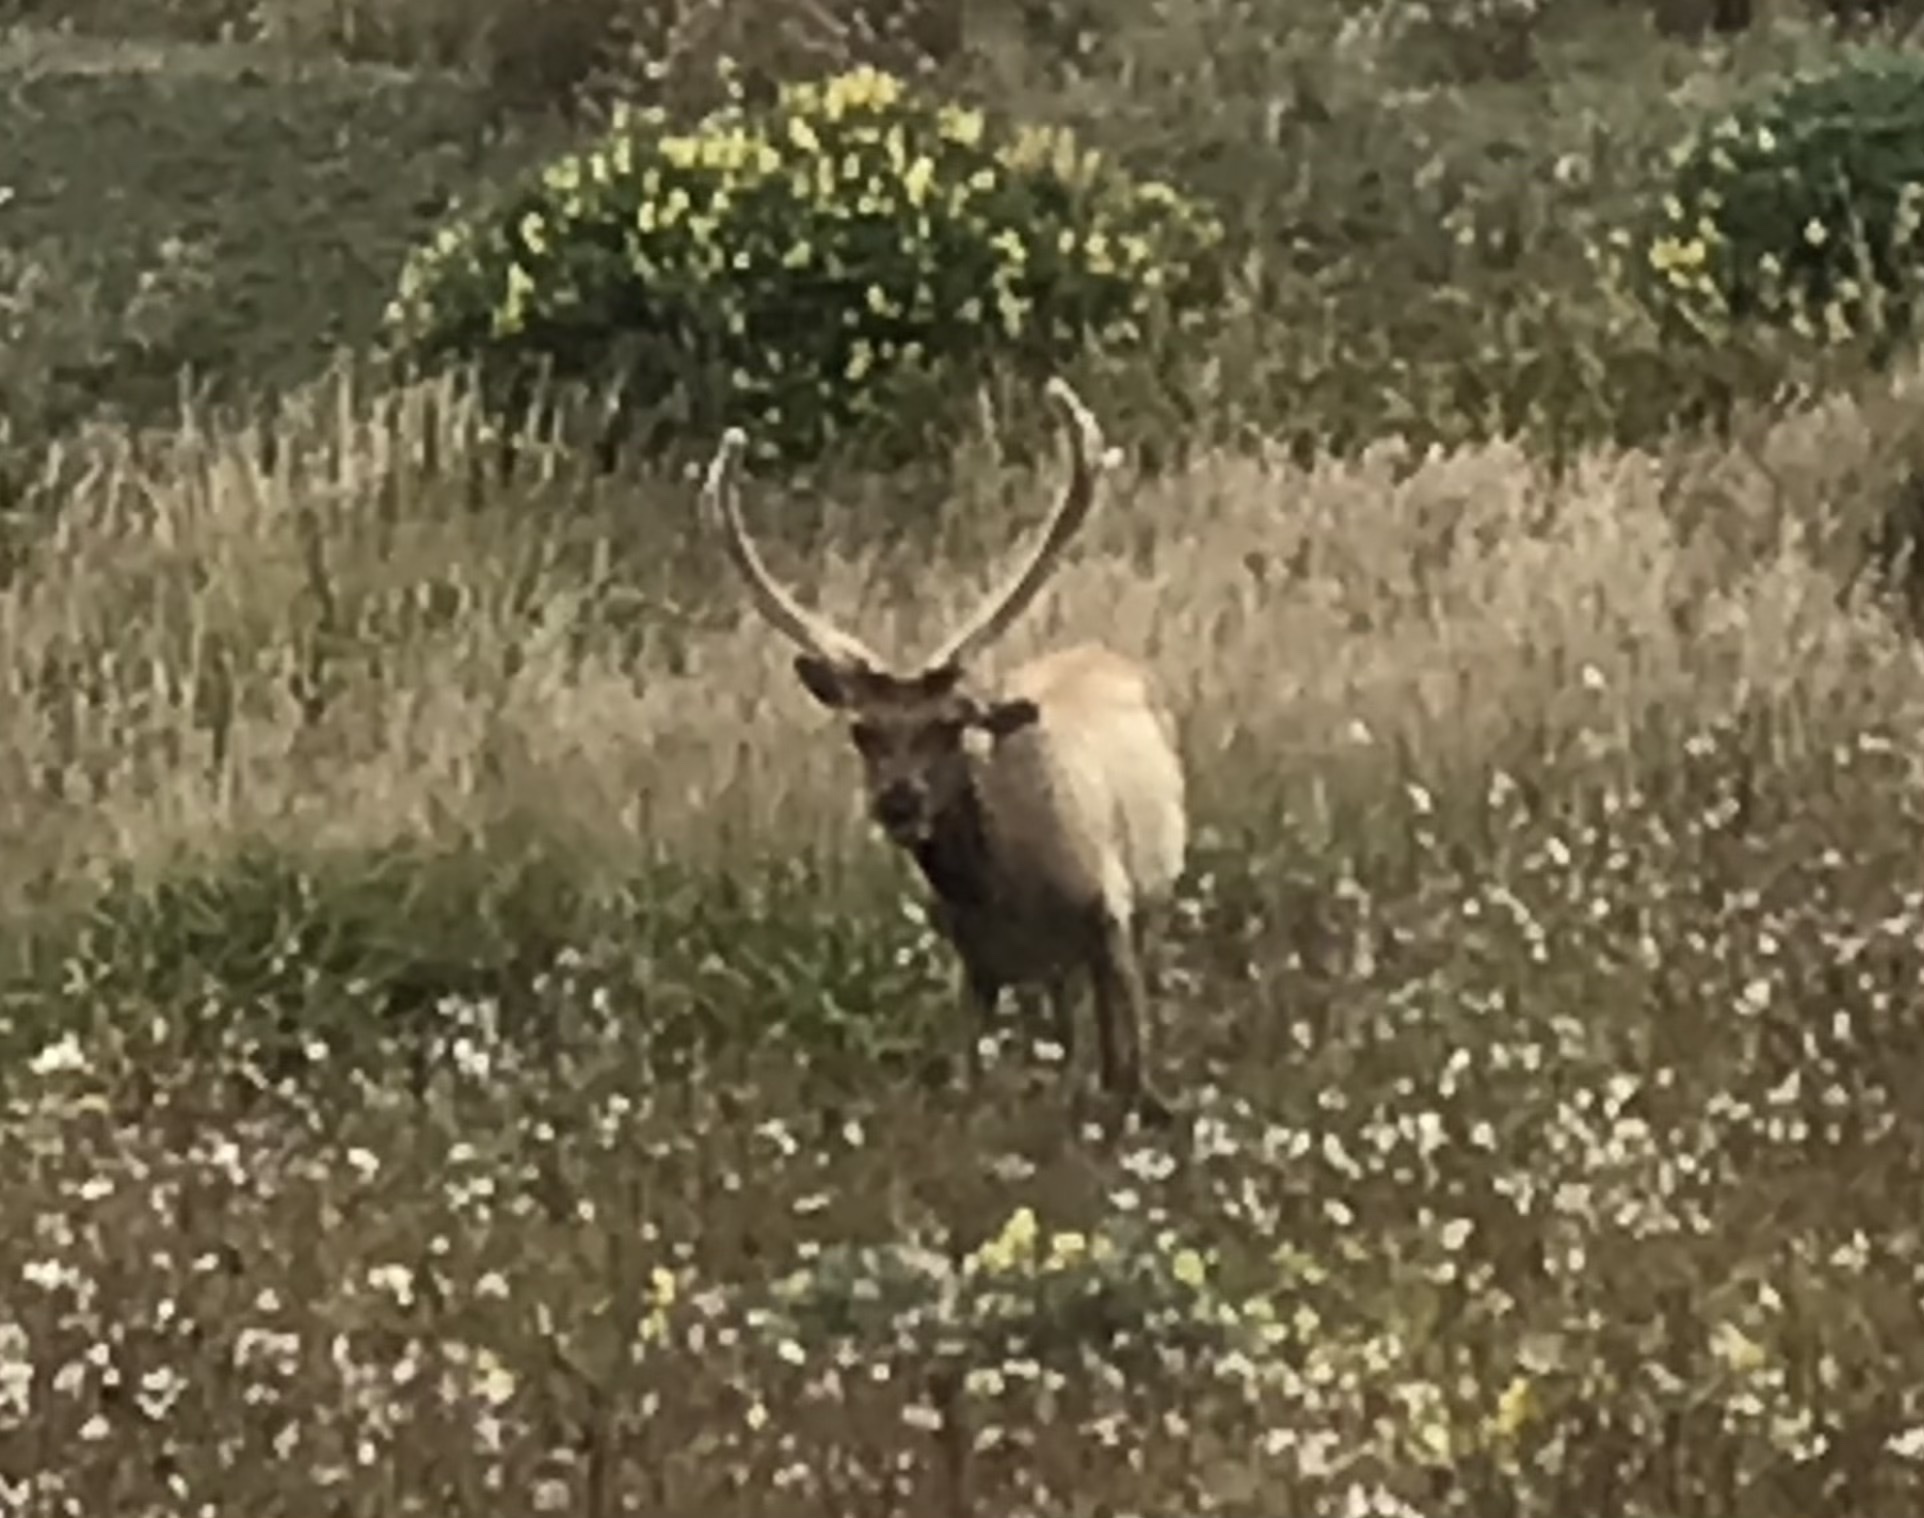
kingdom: Animalia
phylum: Chordata
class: Mammalia
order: Artiodactyla
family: Cervidae
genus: Cervus
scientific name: Cervus elaphus
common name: Red deer
